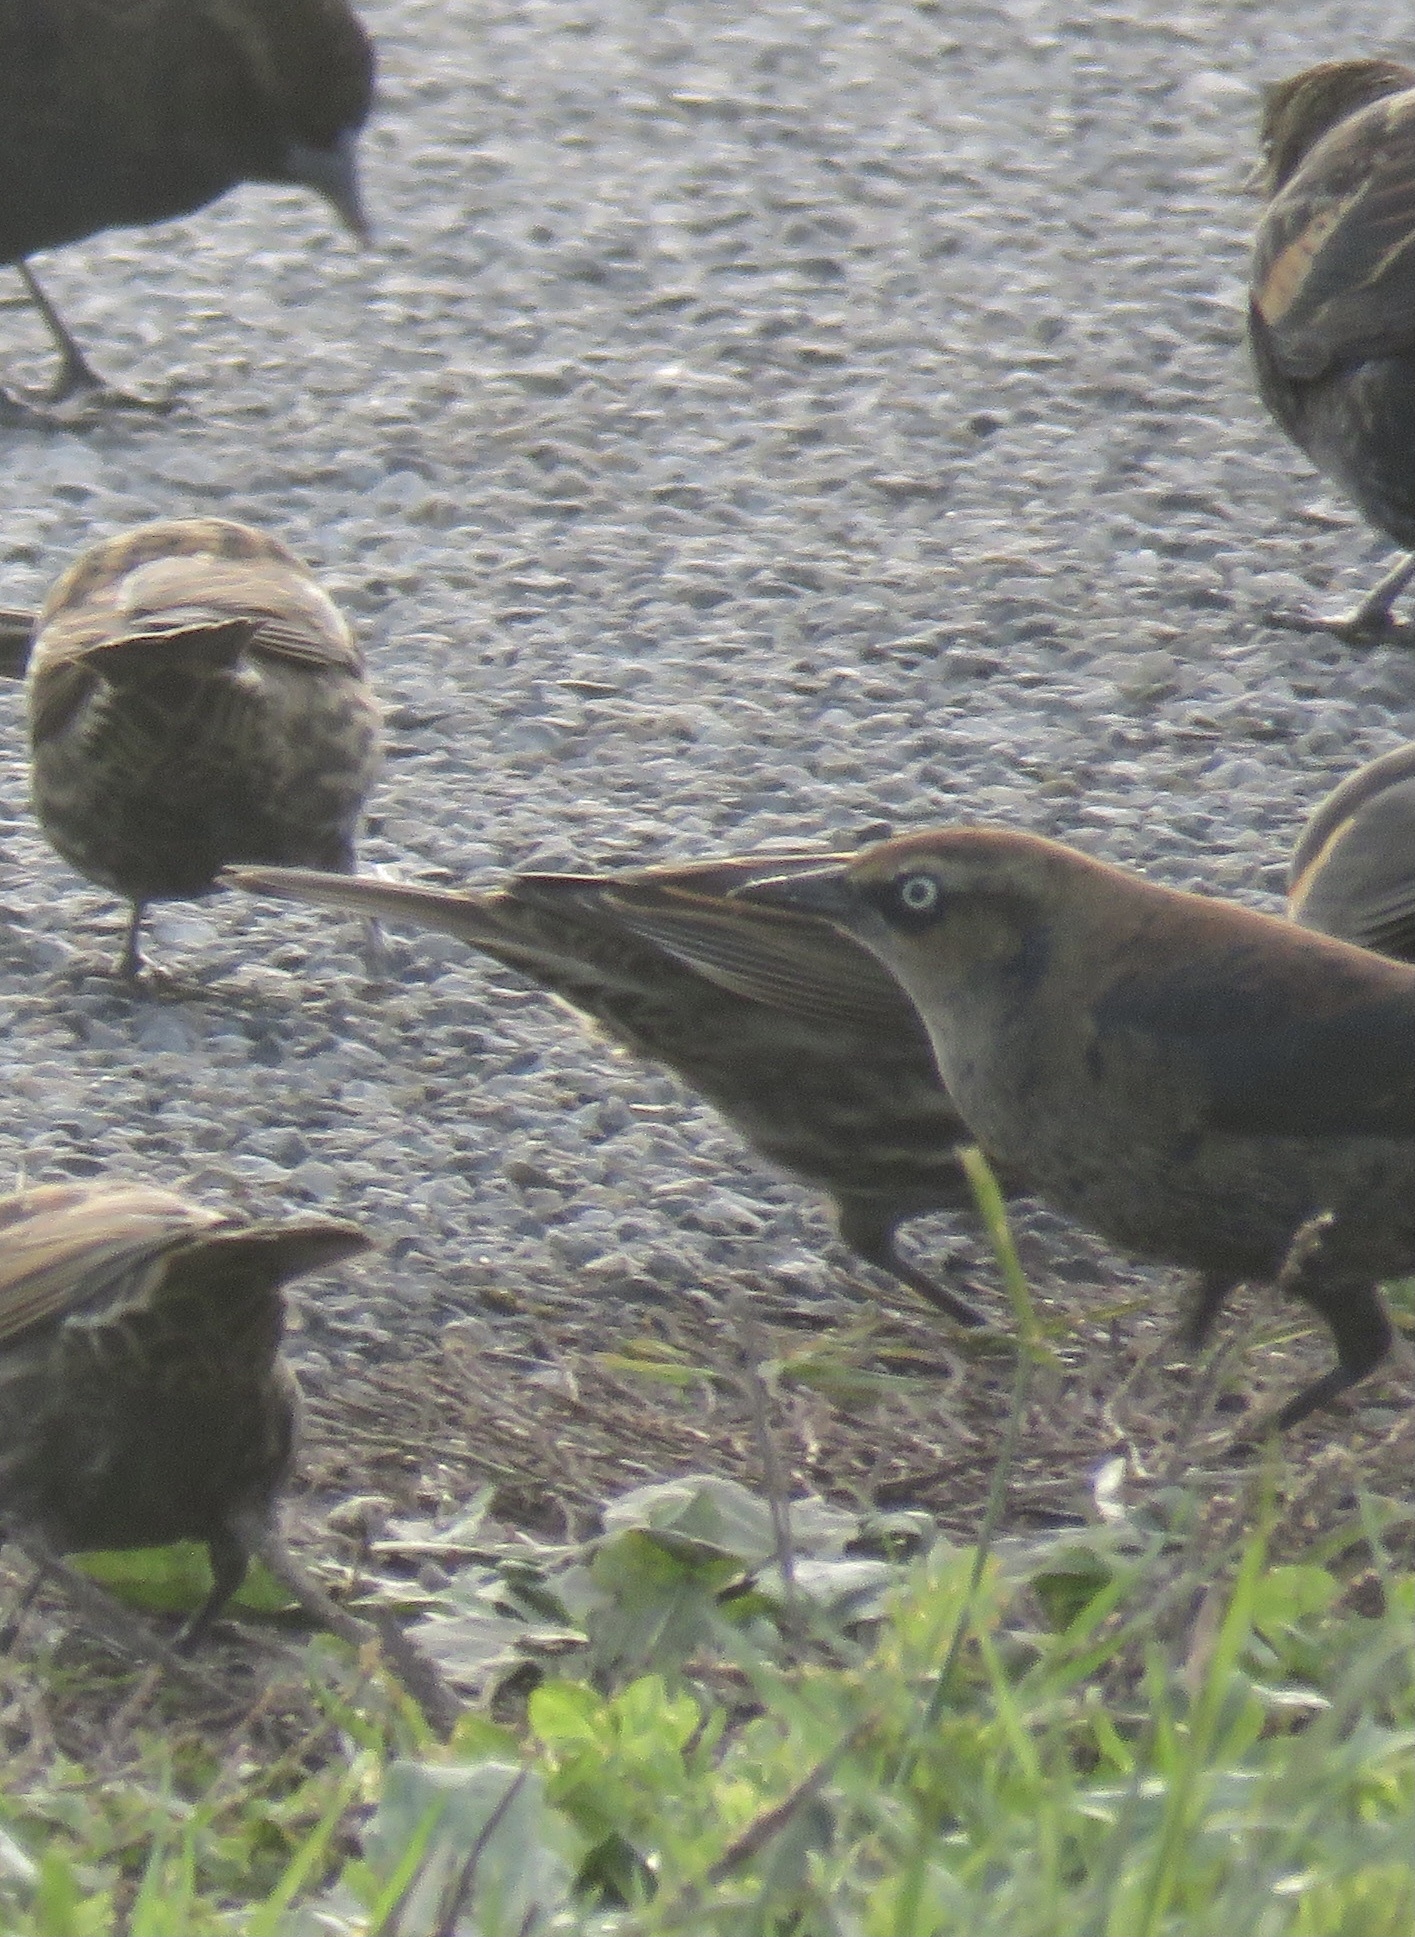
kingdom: Animalia
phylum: Chordata
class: Aves
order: Passeriformes
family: Icteridae
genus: Euphagus
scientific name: Euphagus carolinus
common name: Rusty blackbird
